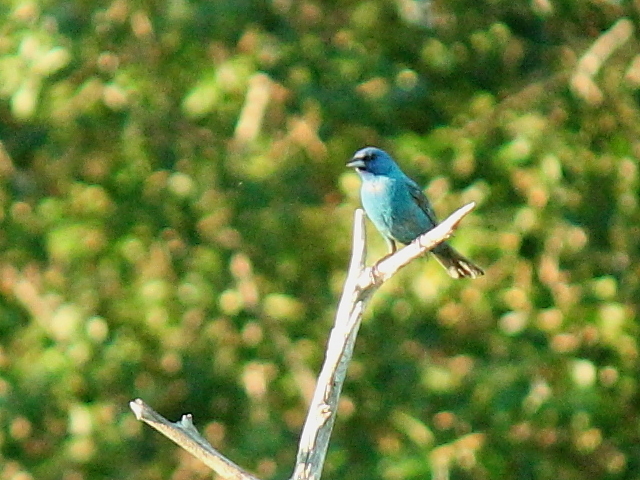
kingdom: Animalia
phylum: Chordata
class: Aves
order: Passeriformes
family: Cardinalidae
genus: Passerina
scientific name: Passerina cyanea
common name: Indigo bunting
